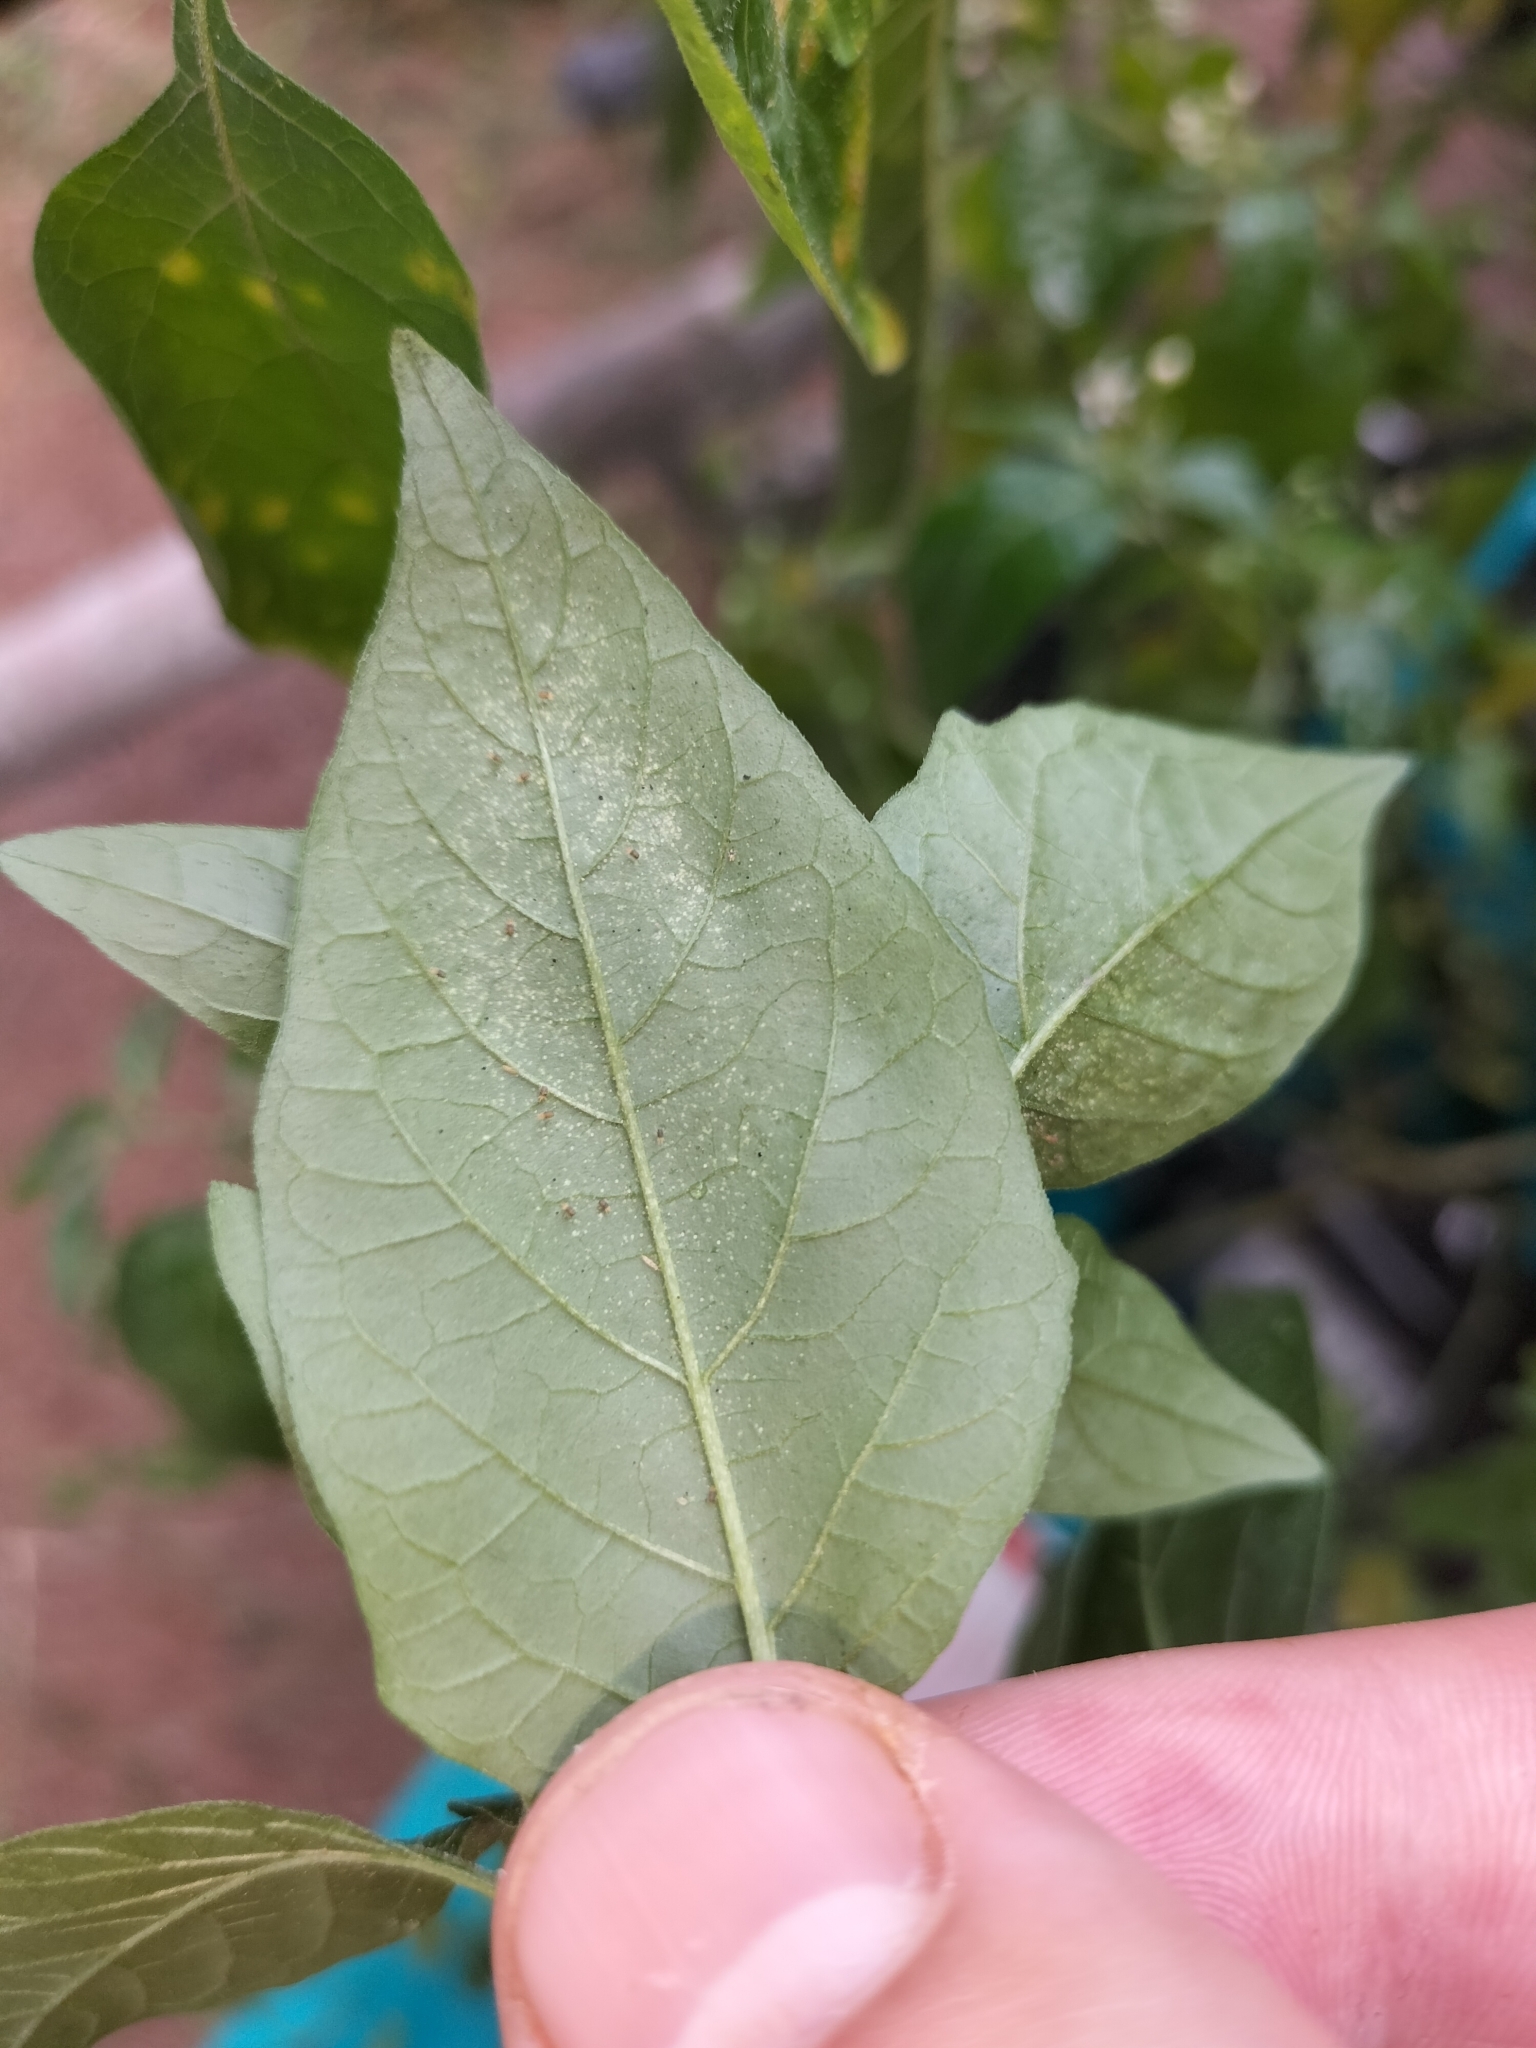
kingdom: Plantae
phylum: Tracheophyta
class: Magnoliopsida
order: Solanales
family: Solanaceae
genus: Solanum
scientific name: Solanum americanum
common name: American black nightshade
